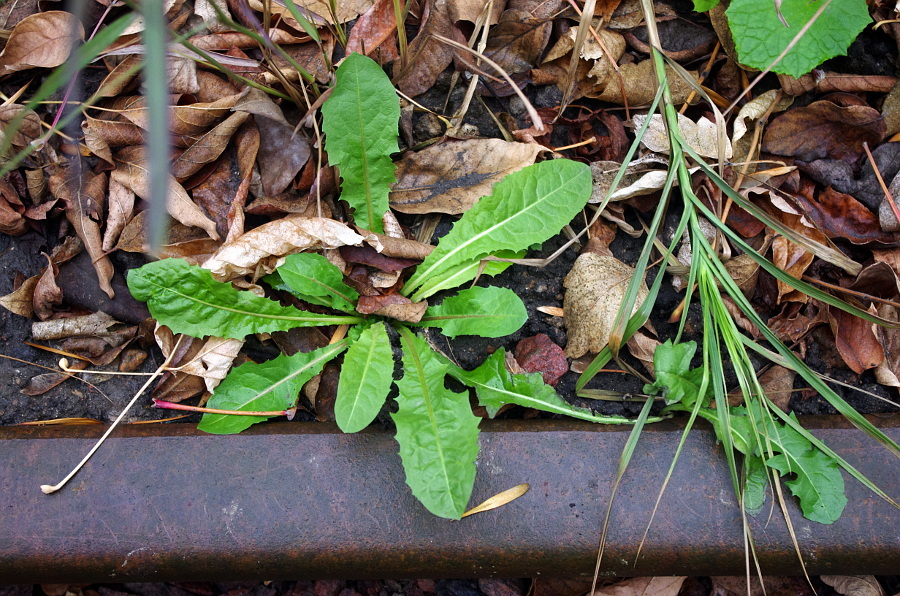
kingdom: Plantae
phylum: Tracheophyta
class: Magnoliopsida
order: Asterales
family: Asteraceae
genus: Taraxacum
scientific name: Taraxacum officinale
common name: Common dandelion
